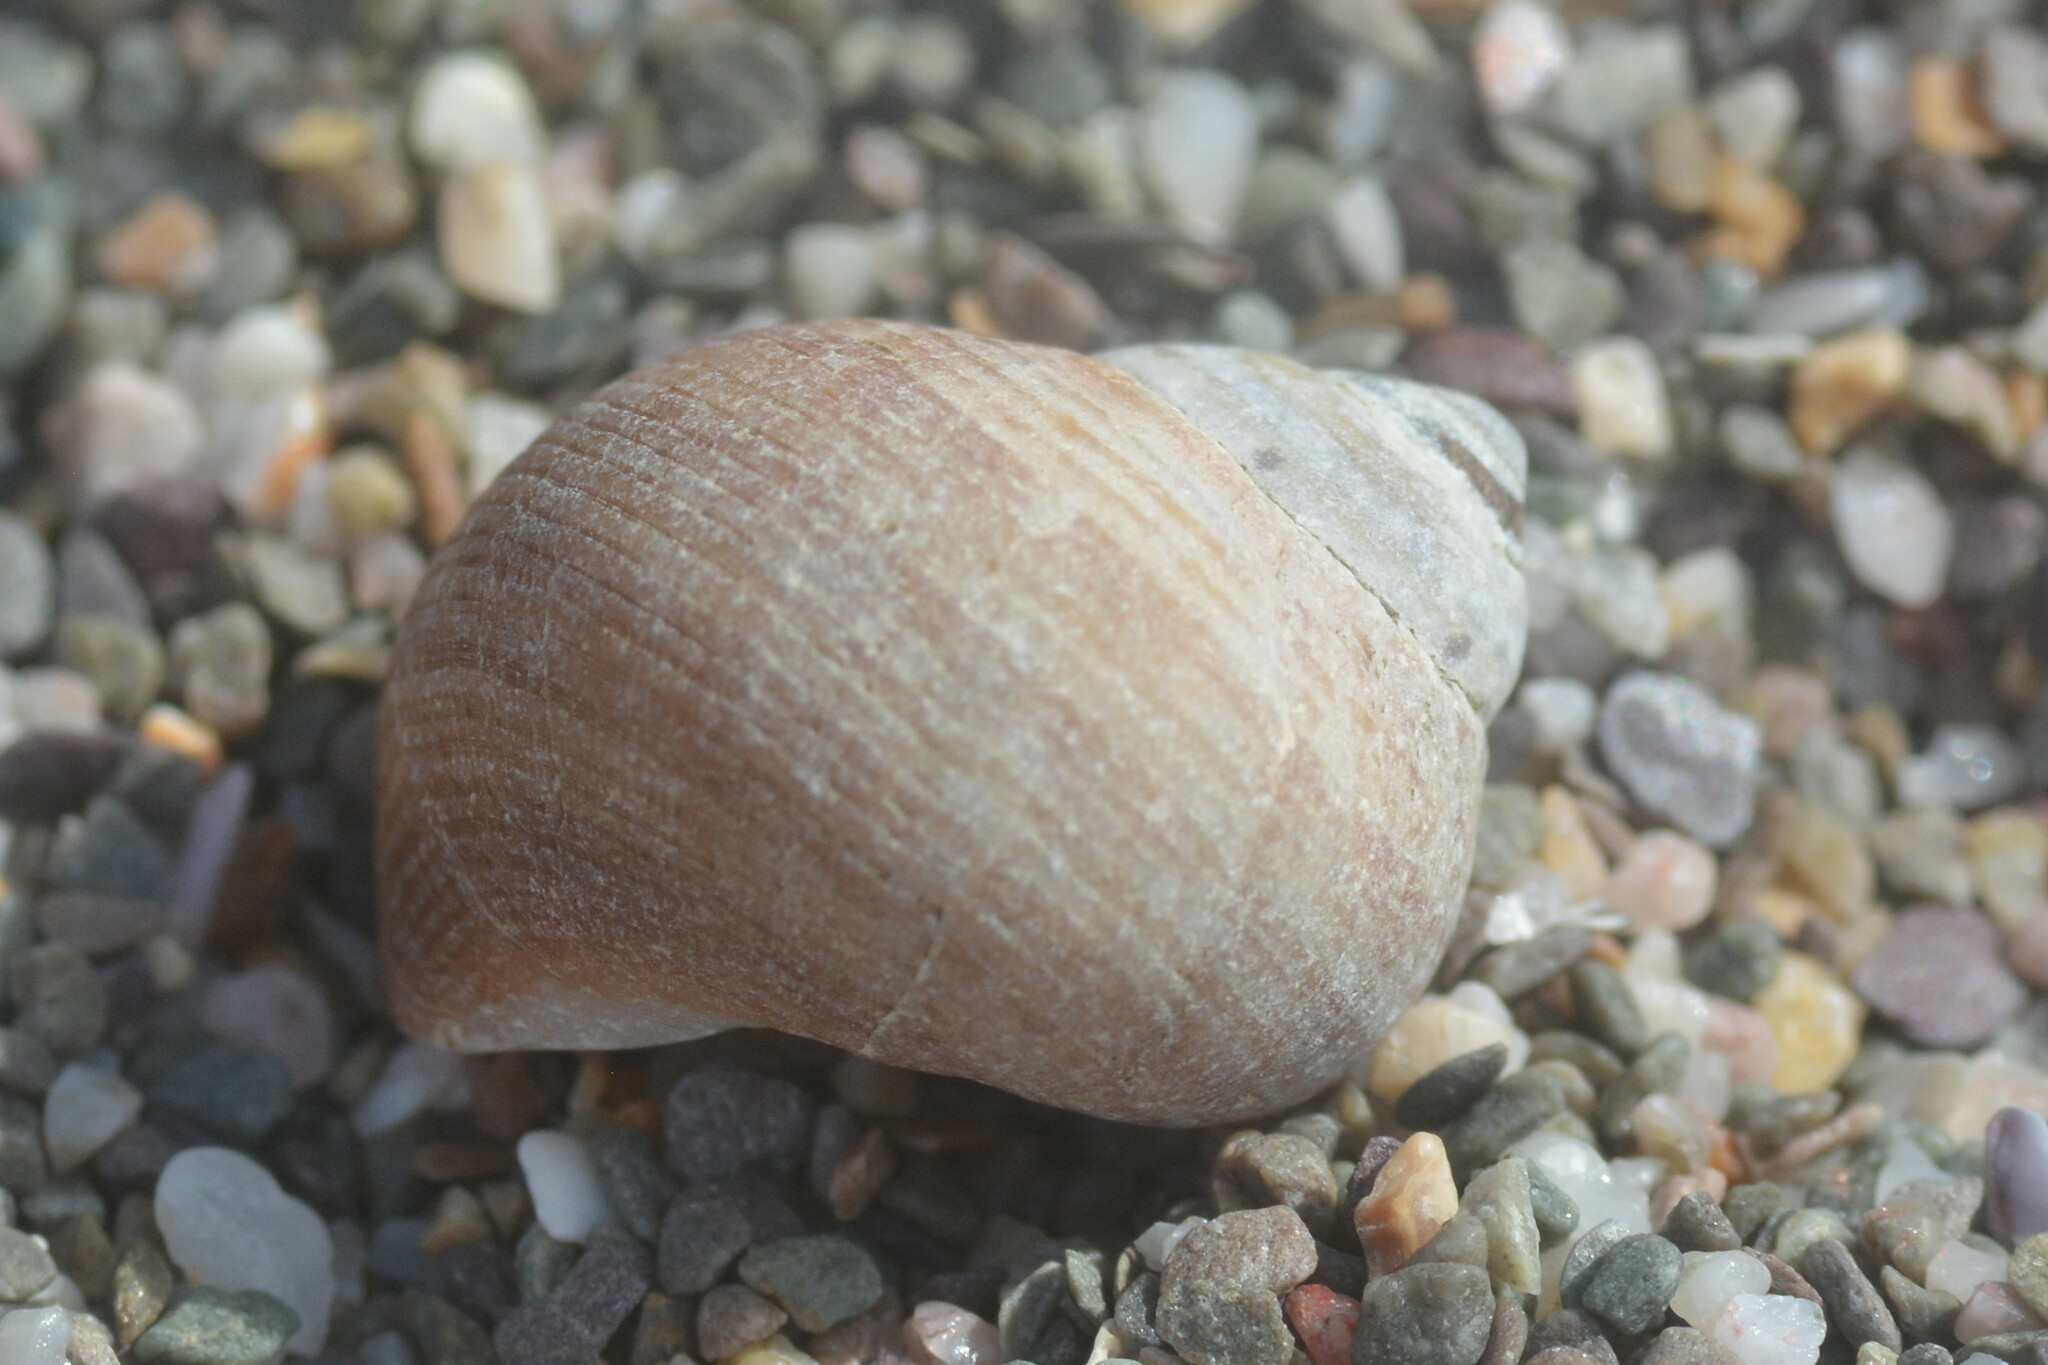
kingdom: Animalia
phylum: Mollusca
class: Gastropoda
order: Littorinimorpha
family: Littorinidae
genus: Littorina
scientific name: Littorina littorea
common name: Common periwinkle
